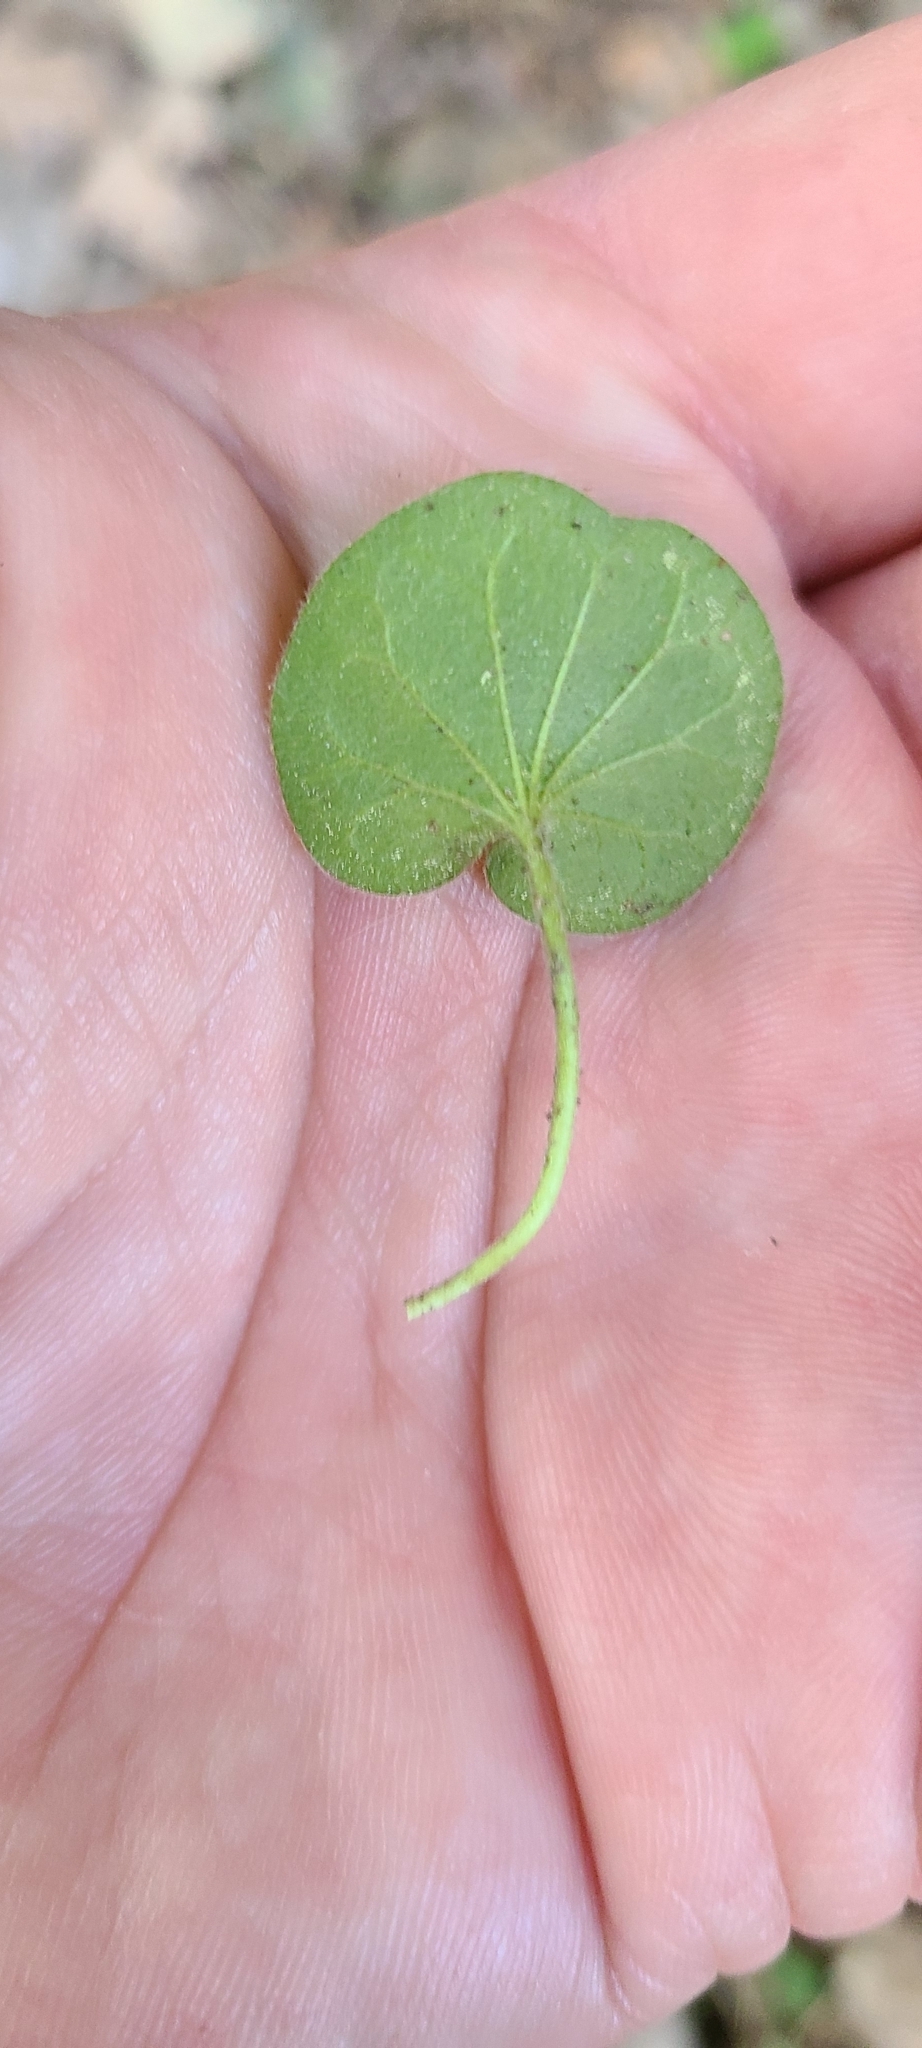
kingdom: Plantae
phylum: Tracheophyta
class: Magnoliopsida
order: Solanales
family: Convolvulaceae
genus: Dichondra
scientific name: Dichondra repens
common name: Kidneyweed
